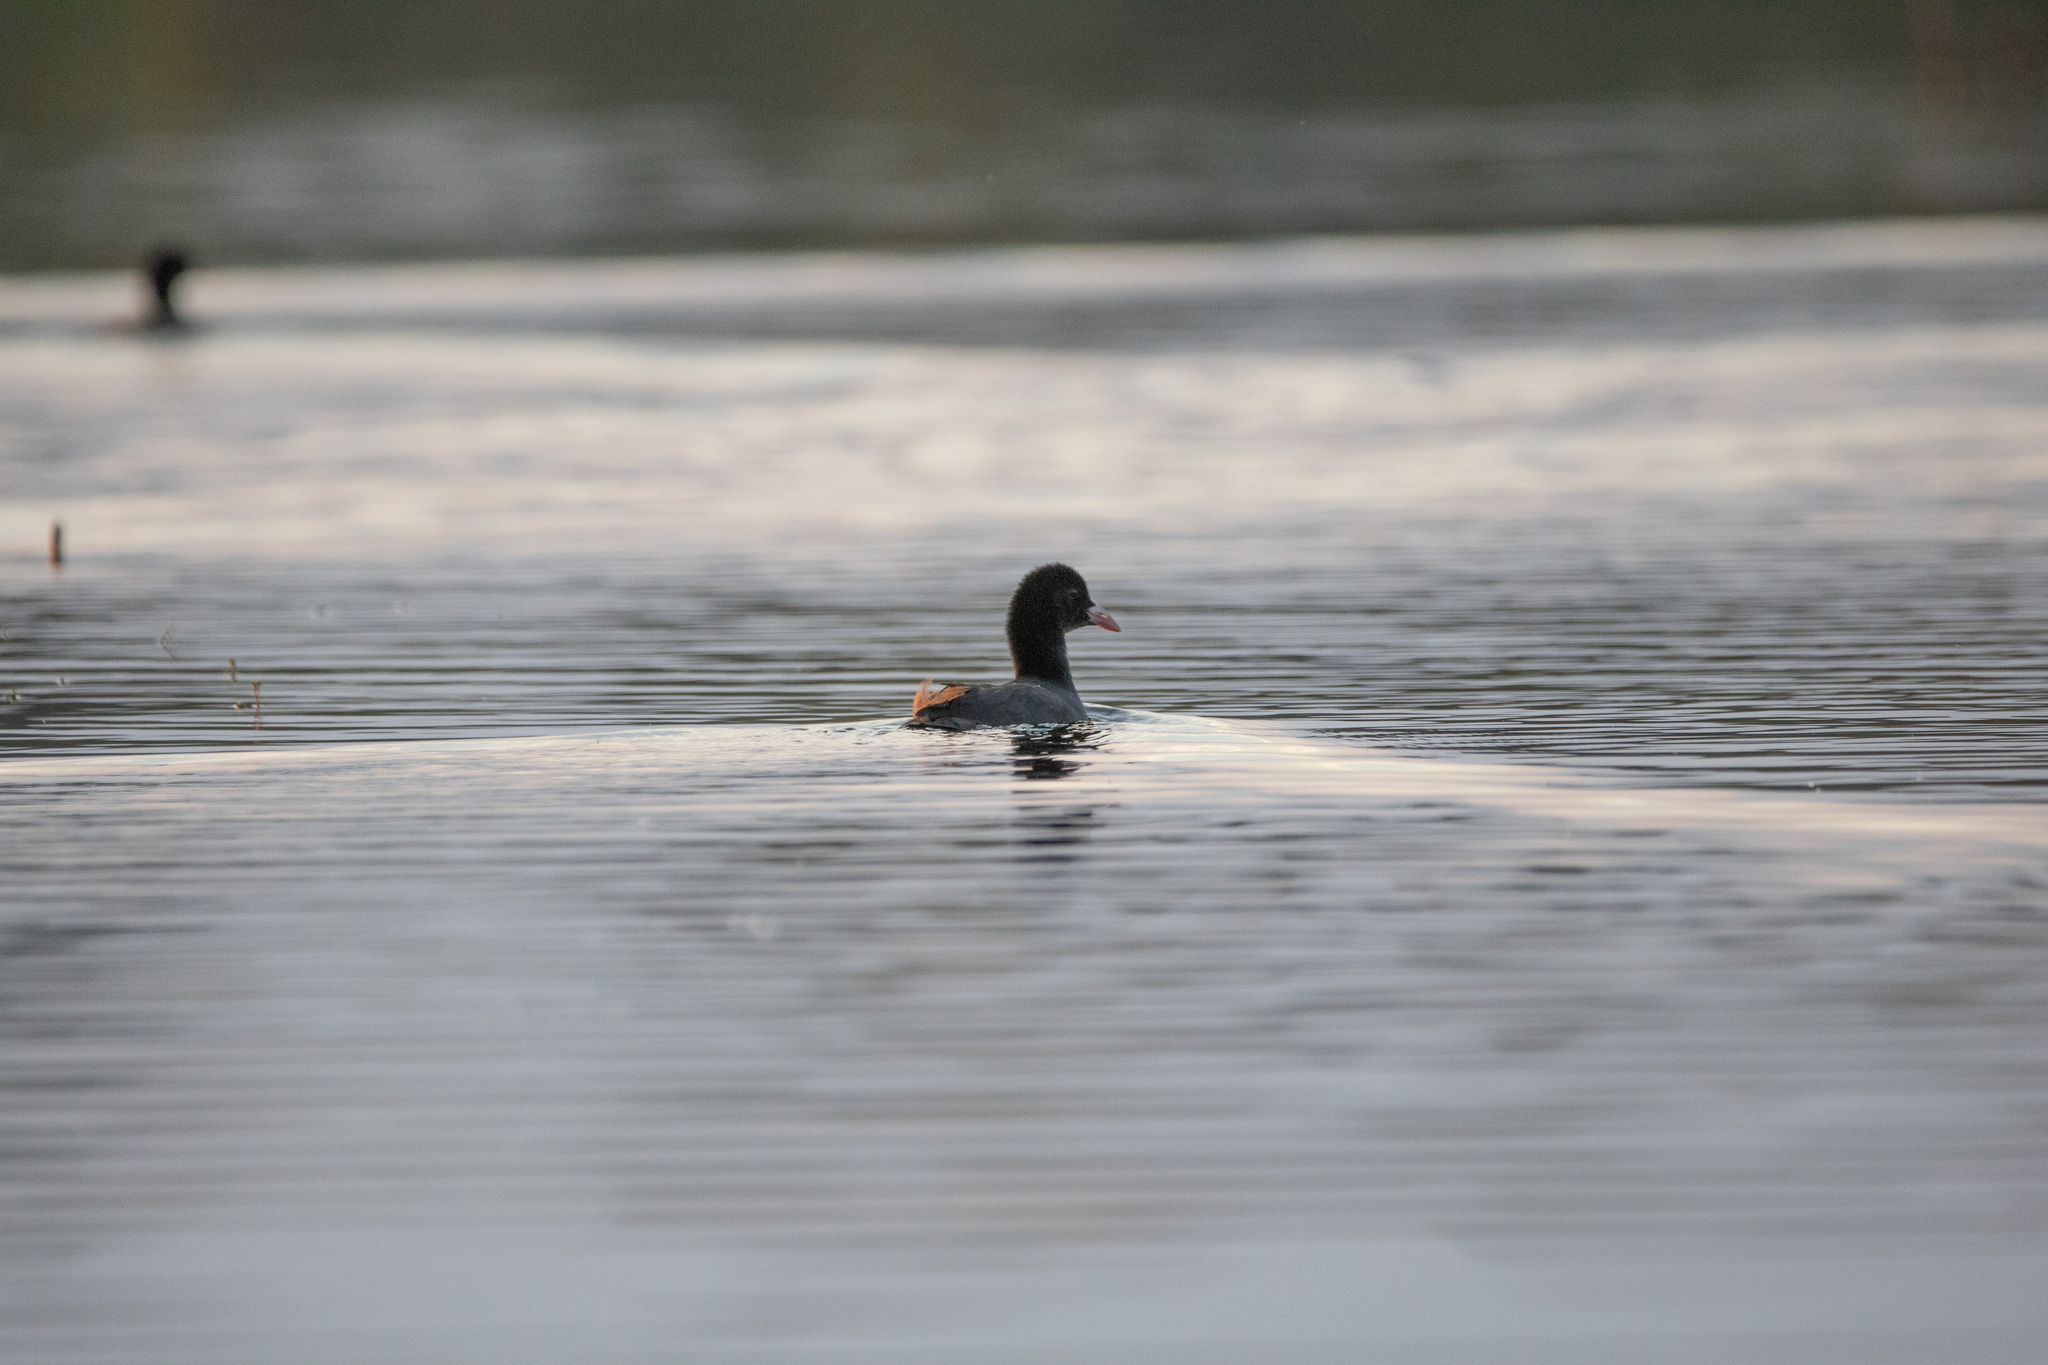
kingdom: Animalia
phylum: Chordata
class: Aves
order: Gruiformes
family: Rallidae
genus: Fulica
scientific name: Fulica atra
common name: Eurasian coot
